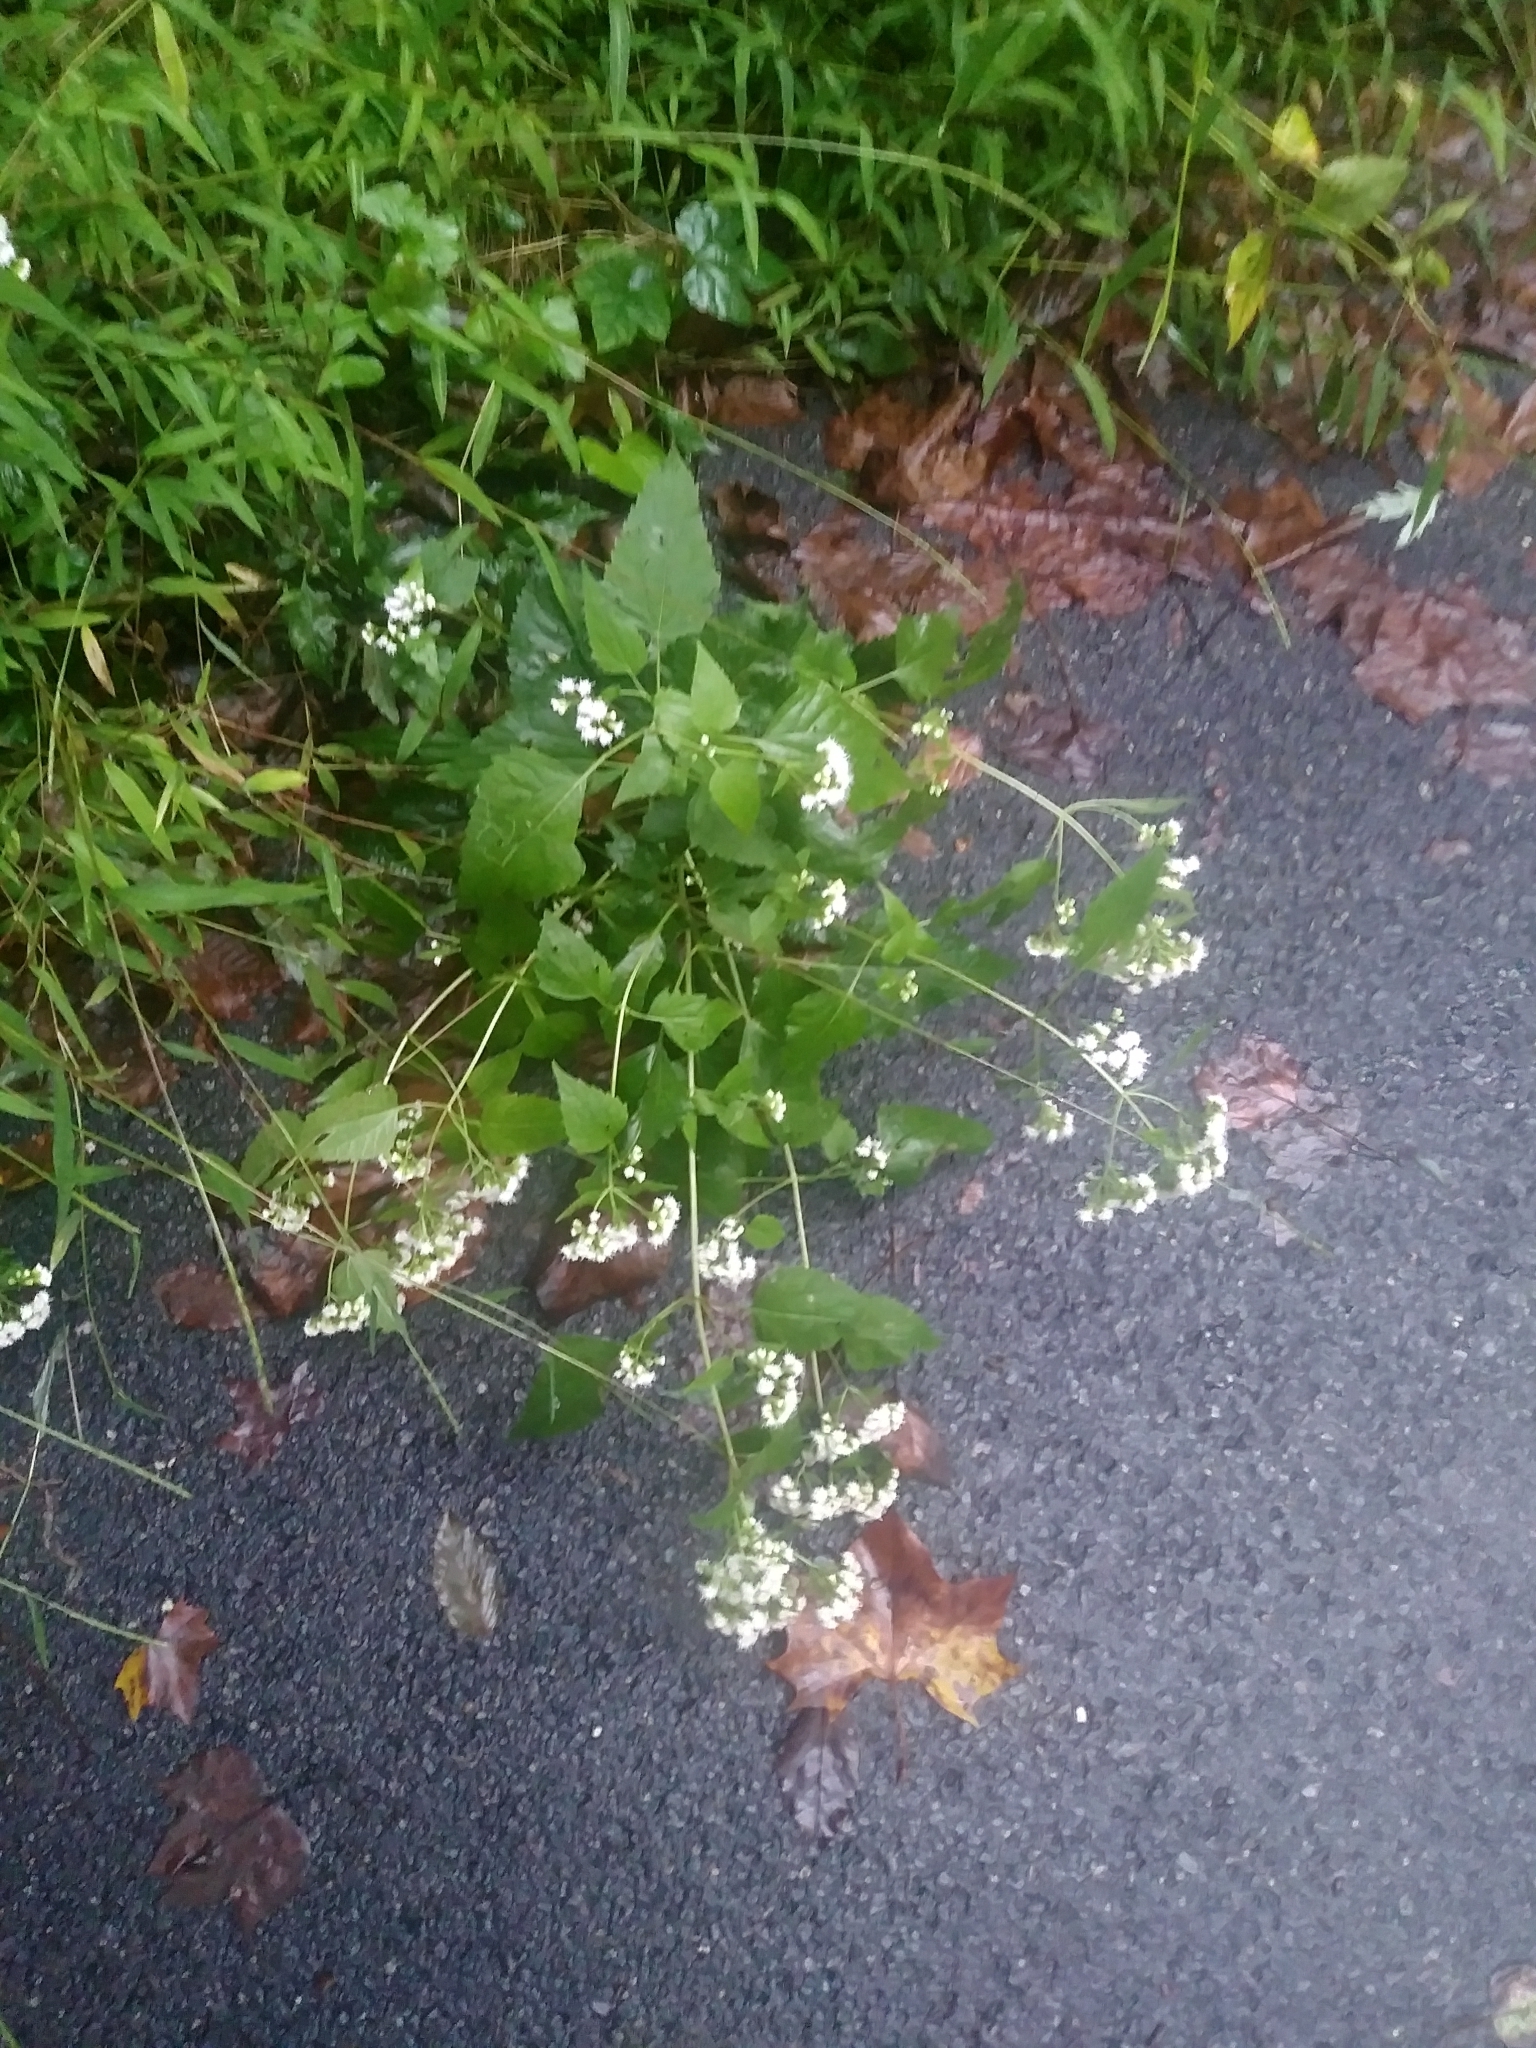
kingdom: Plantae
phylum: Tracheophyta
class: Magnoliopsida
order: Asterales
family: Asteraceae
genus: Ageratina
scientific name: Ageratina altissima
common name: White snakeroot
